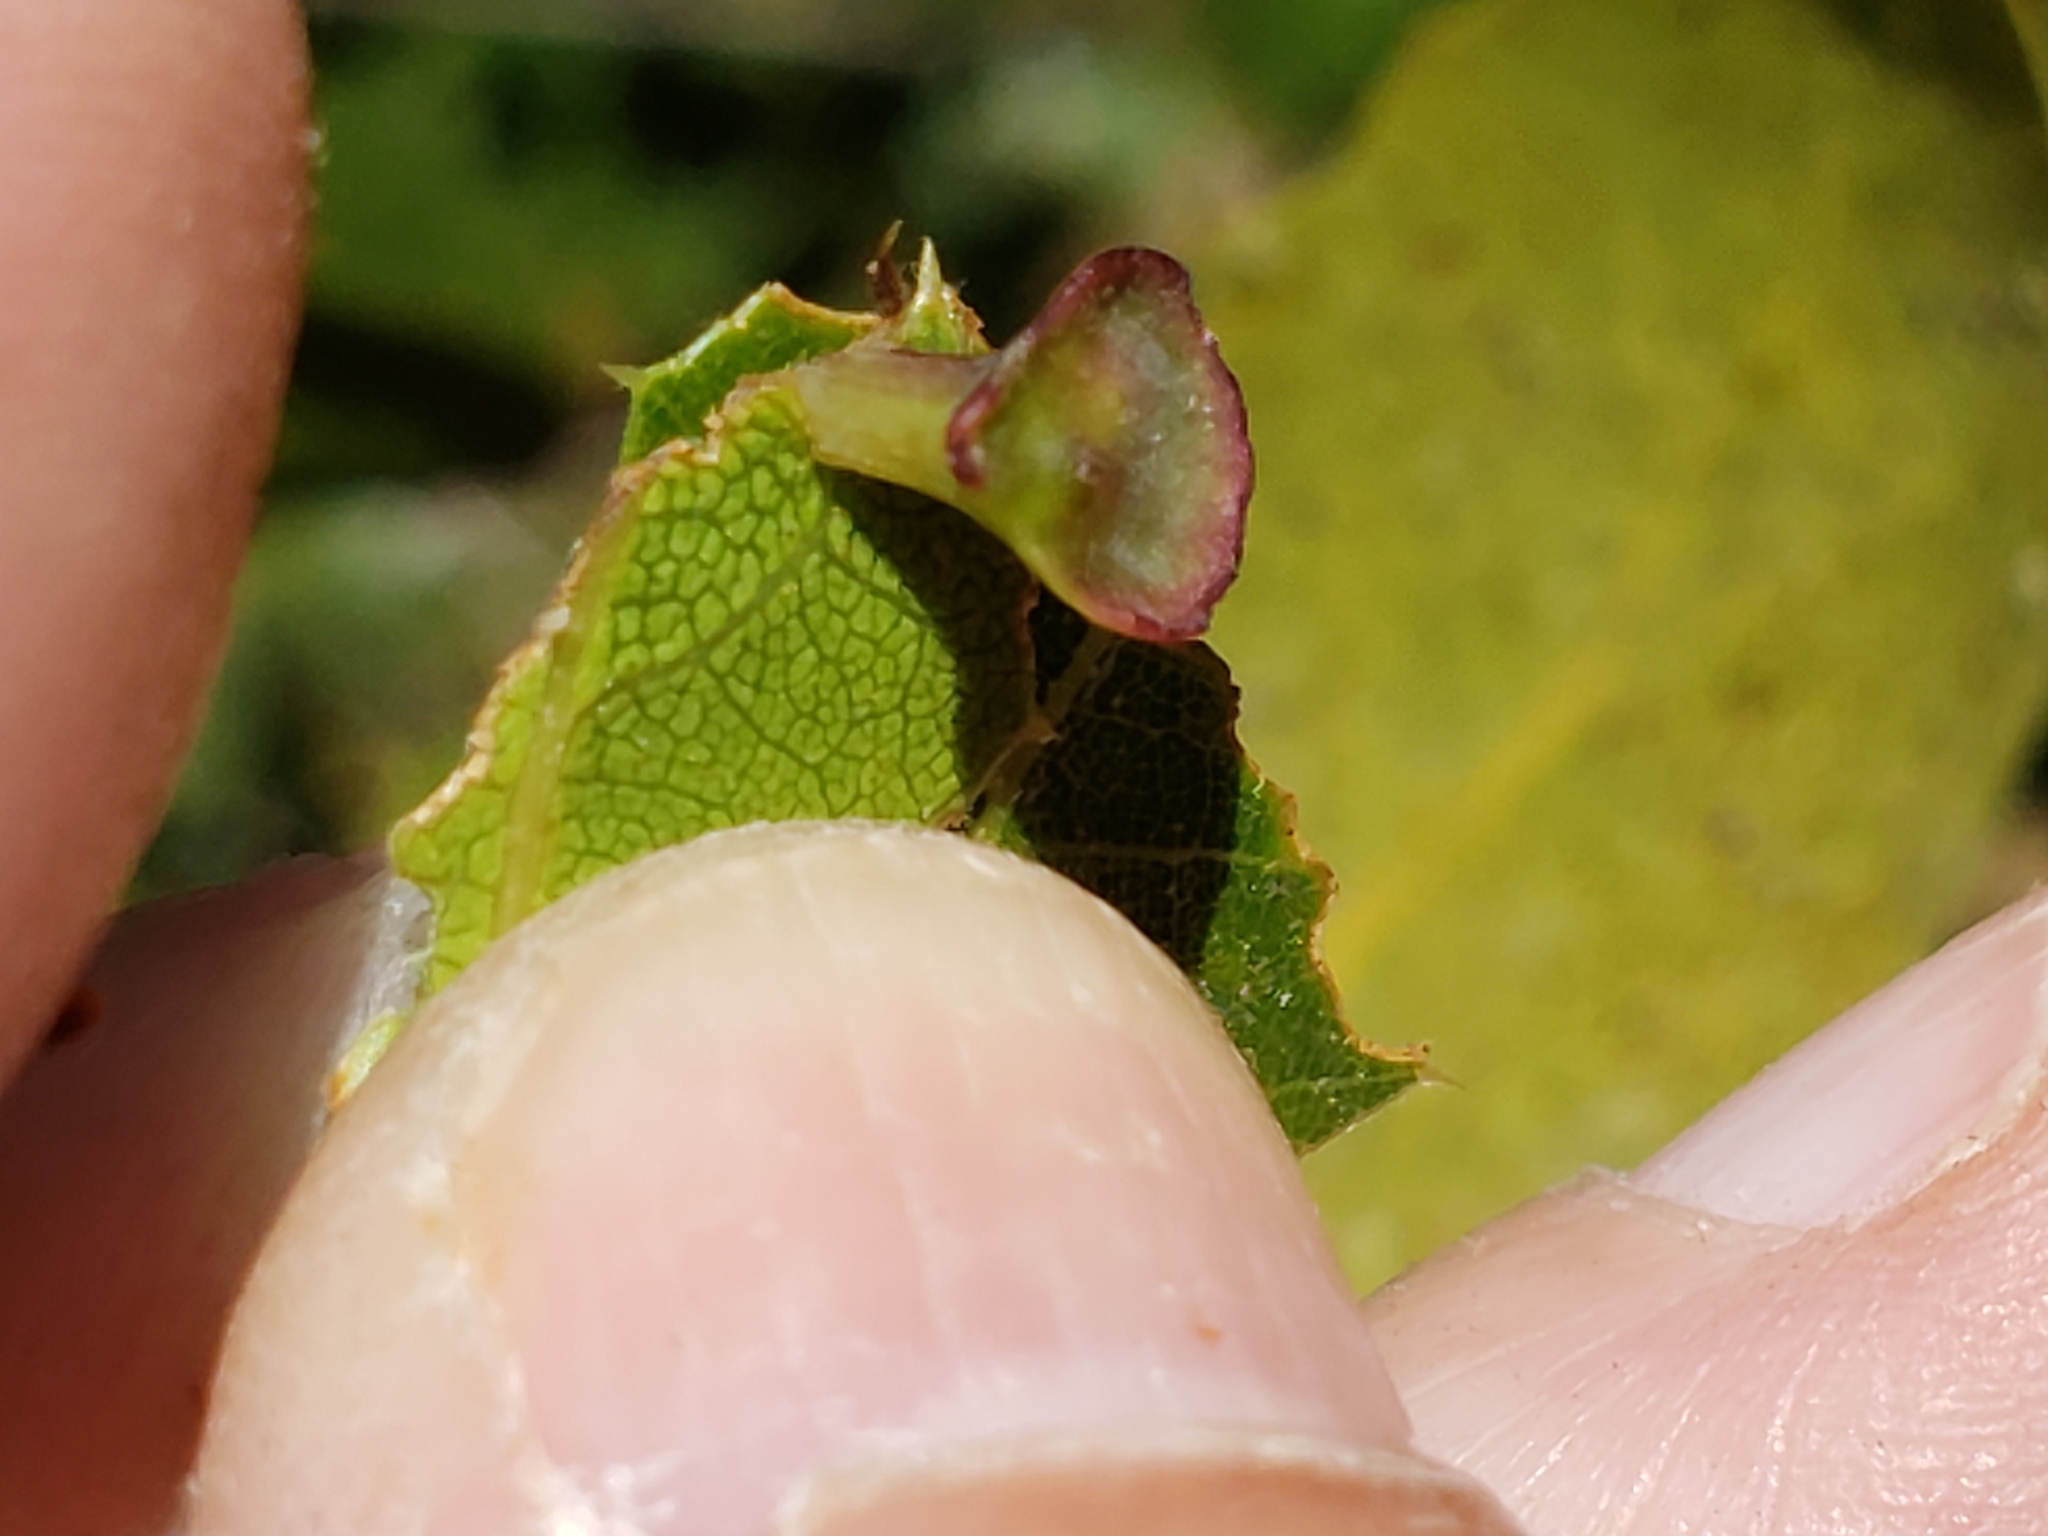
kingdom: Animalia
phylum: Arthropoda
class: Insecta
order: Hymenoptera
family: Cynipidae
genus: Amphibolips
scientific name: Amphibolips quercuspomiformis
